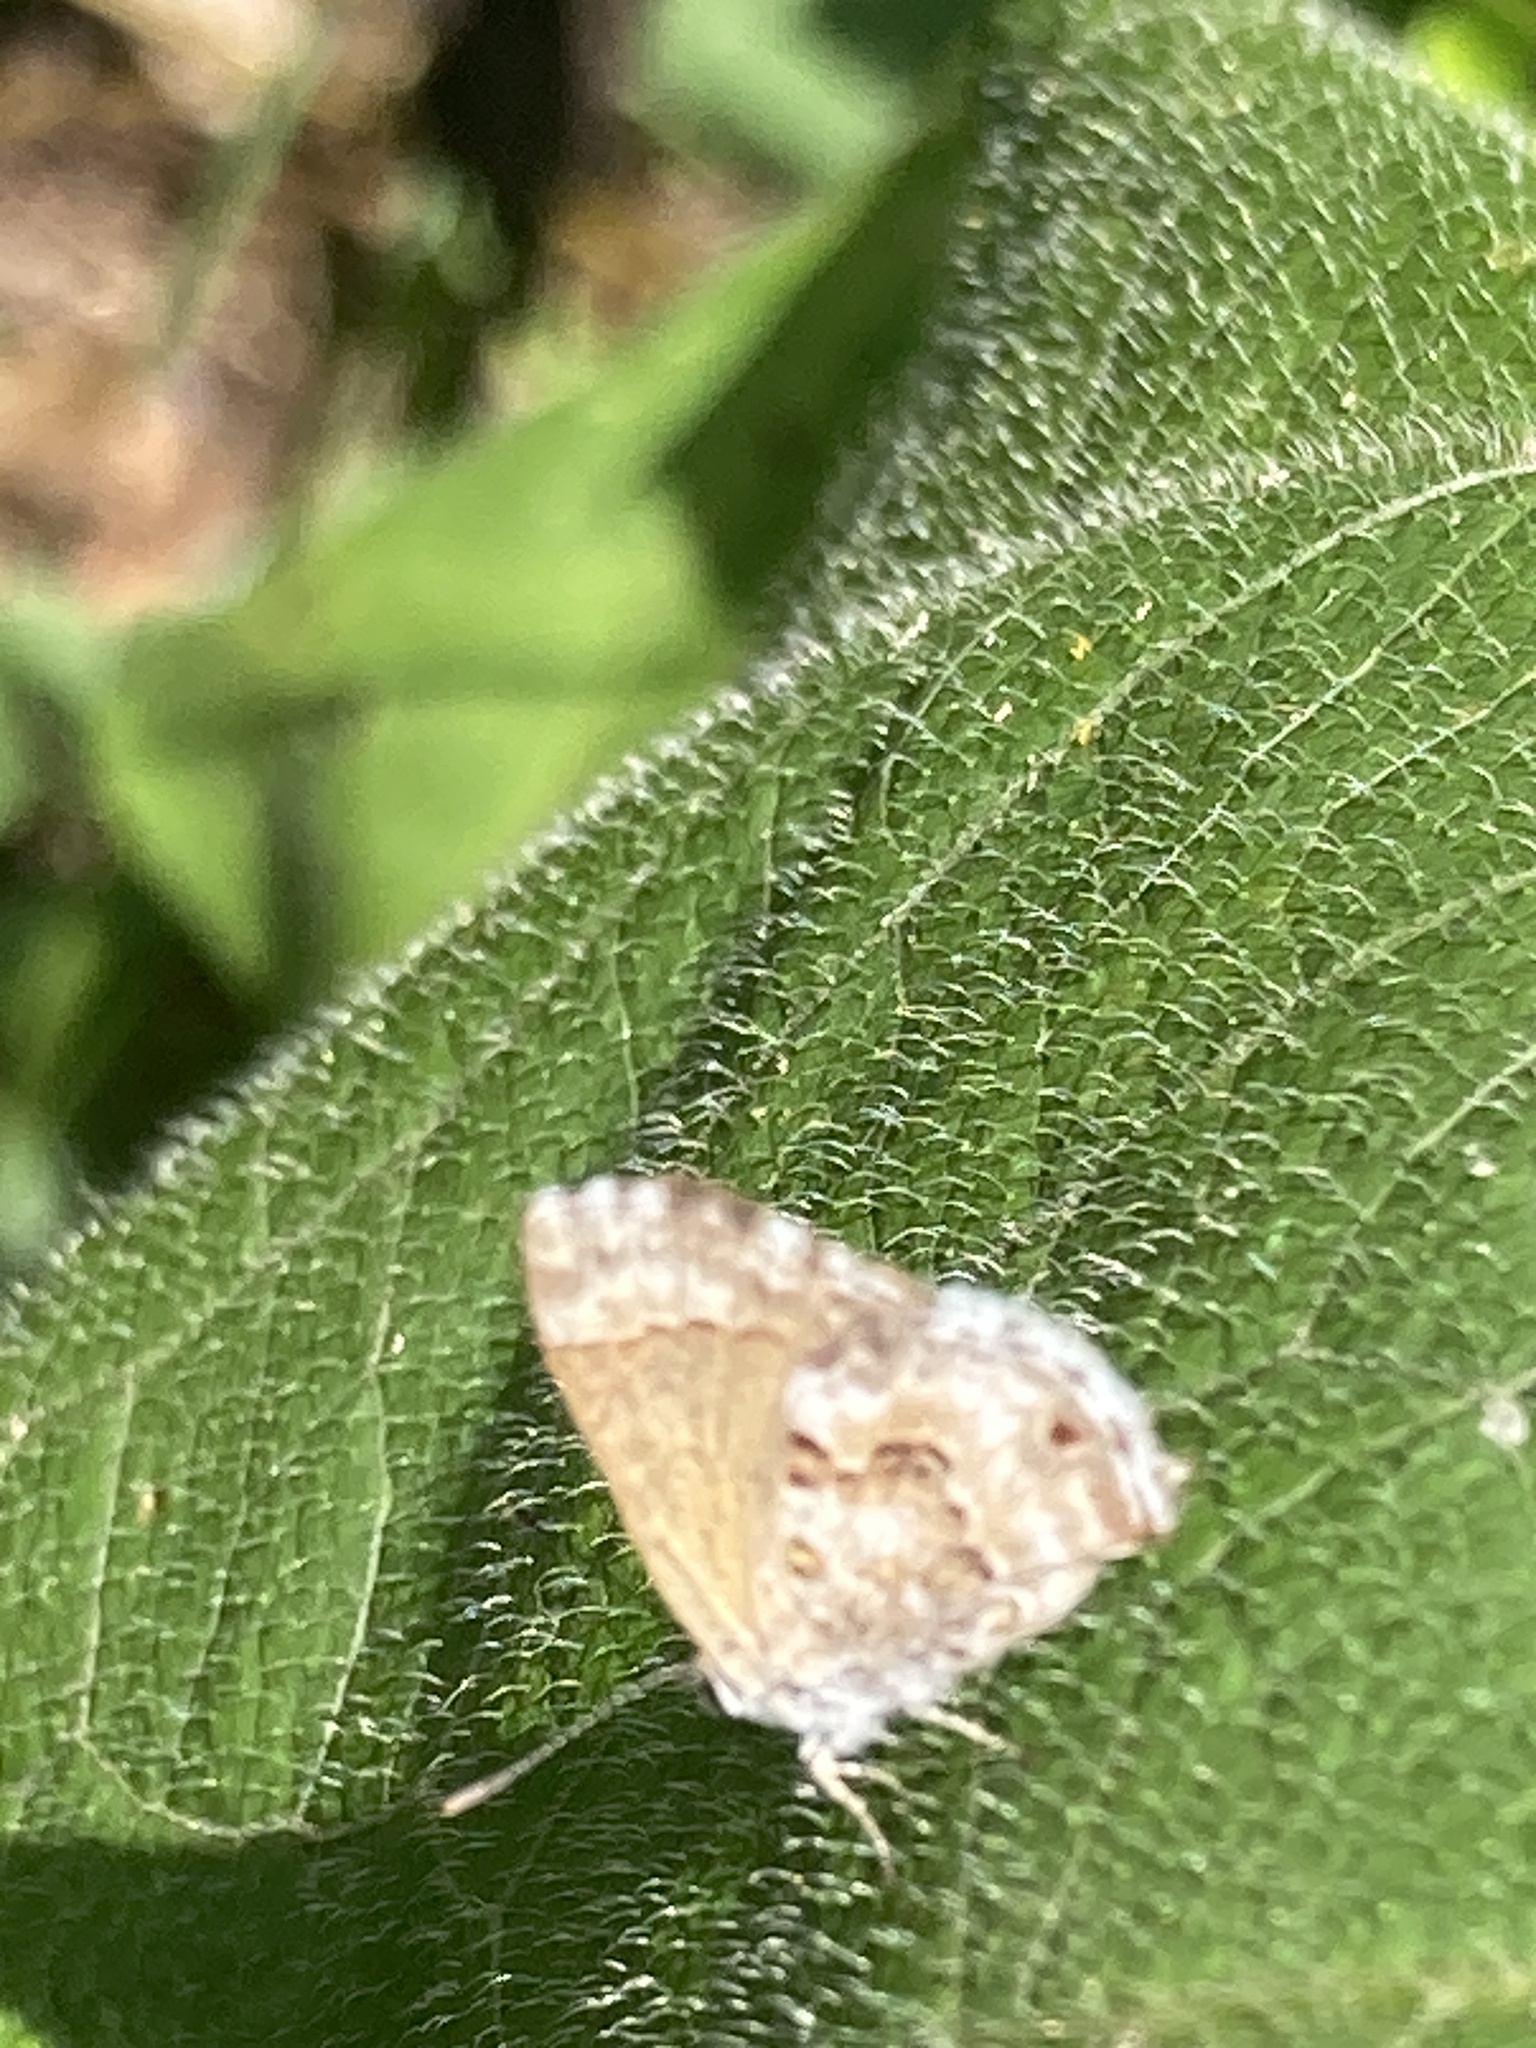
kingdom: Animalia
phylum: Arthropoda
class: Insecta
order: Lepidoptera
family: Lycaenidae
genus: Thecla
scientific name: Thecla cestri
